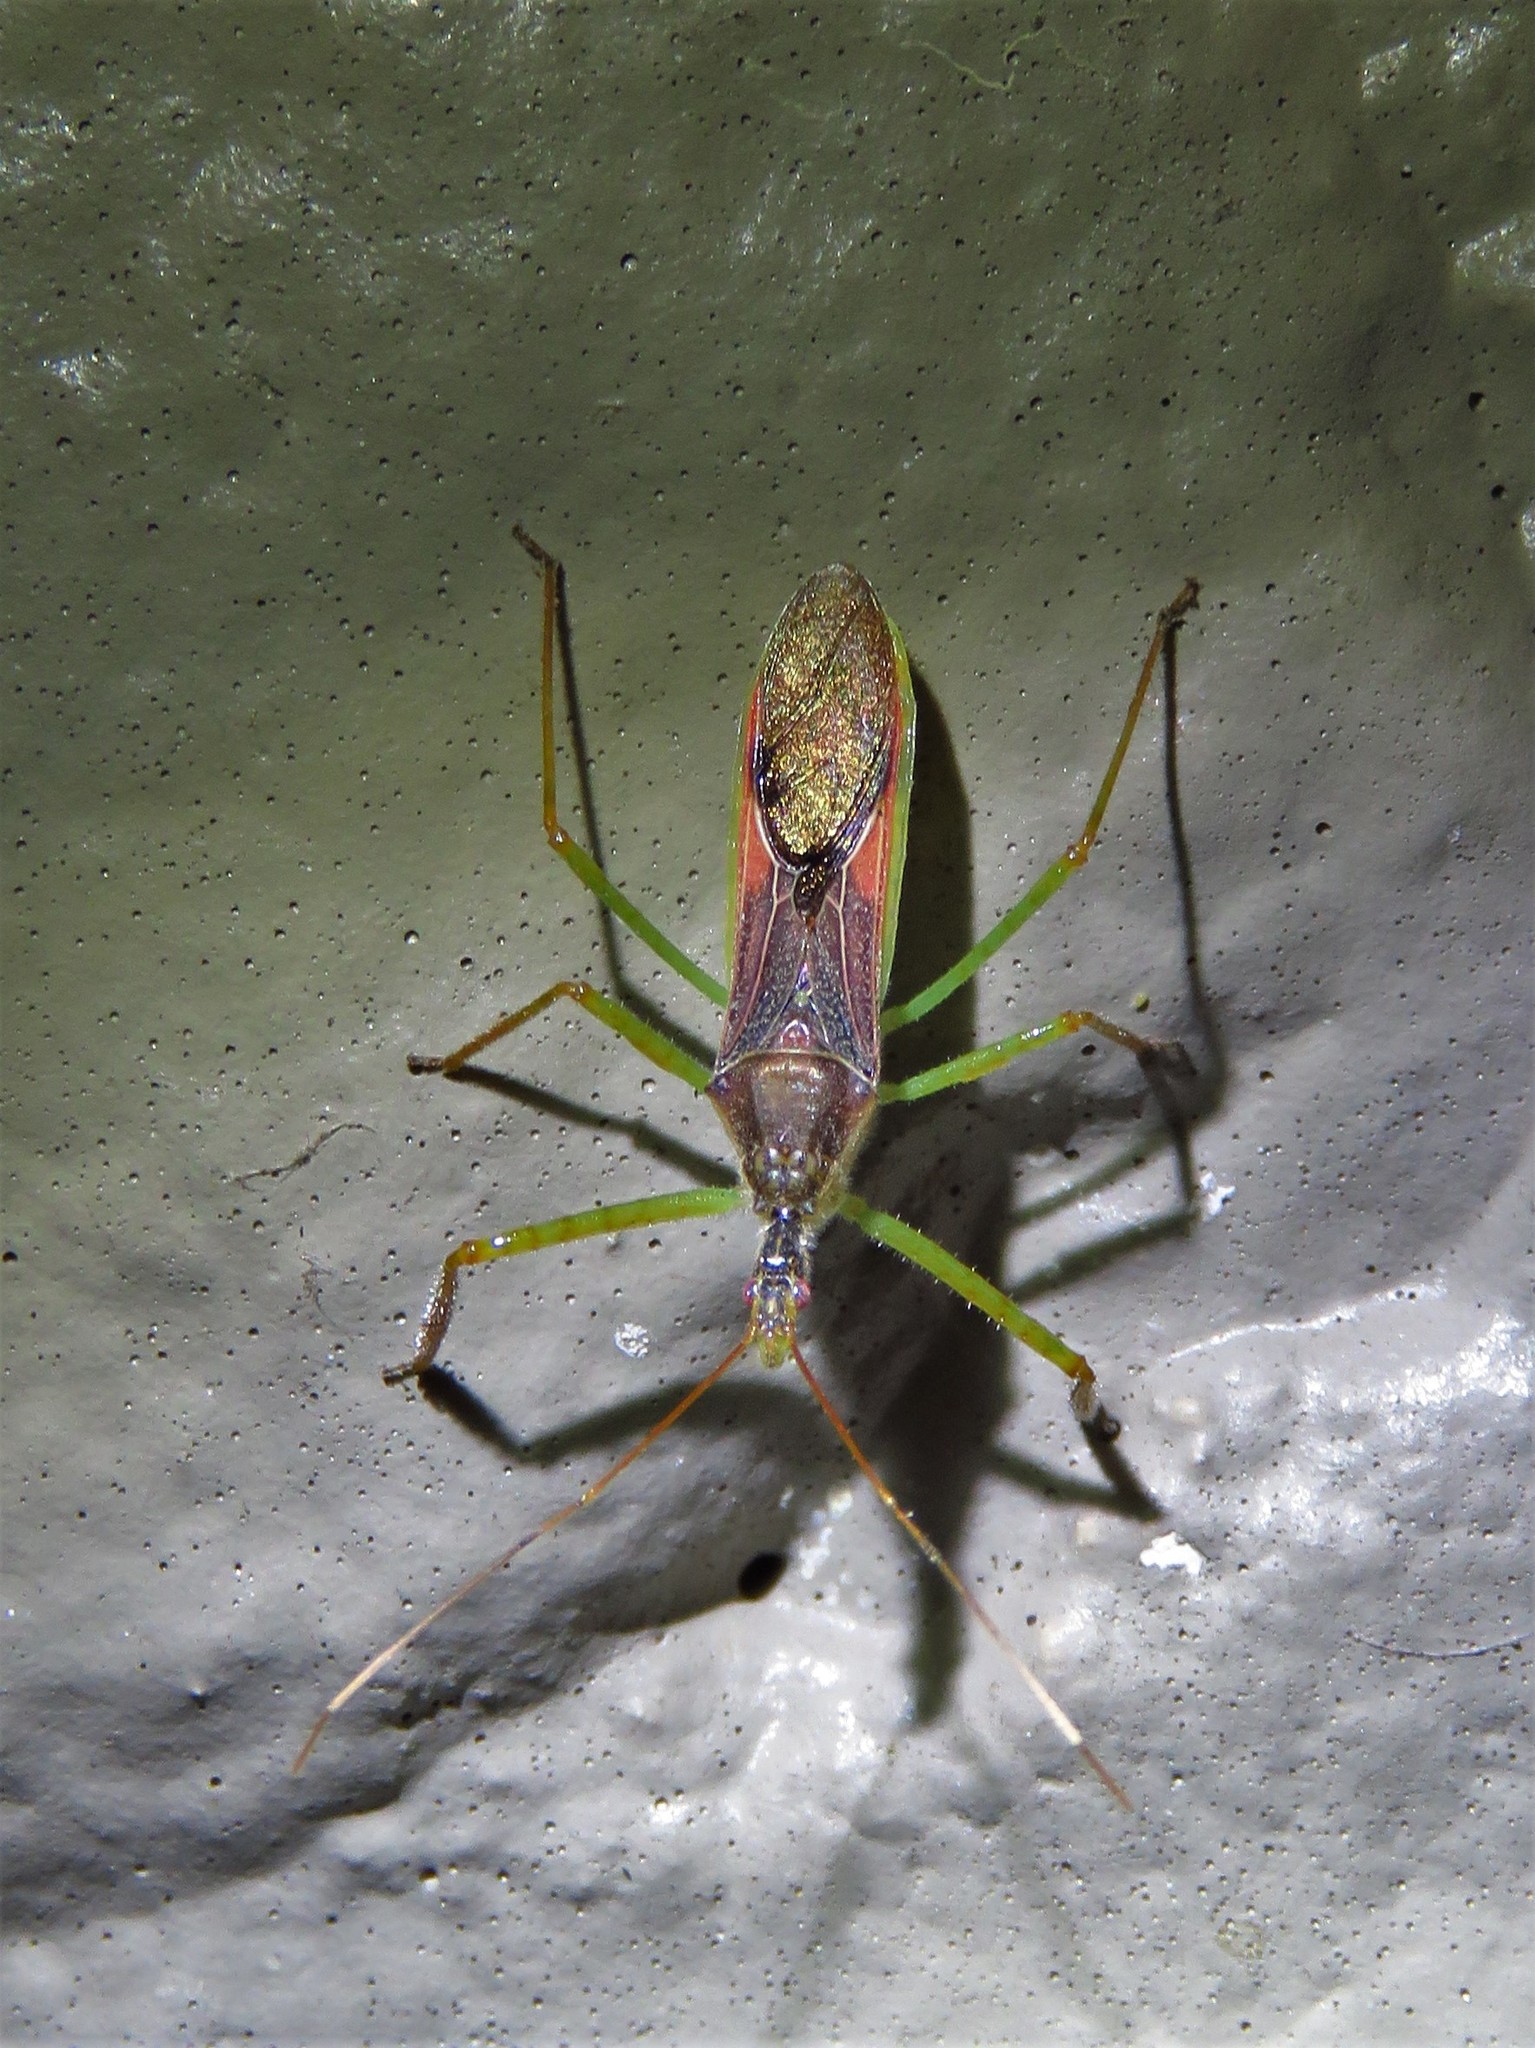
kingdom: Animalia
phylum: Arthropoda
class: Insecta
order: Hemiptera
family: Reduviidae
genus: Zelus
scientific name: Zelus renardii
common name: Assassin bug
